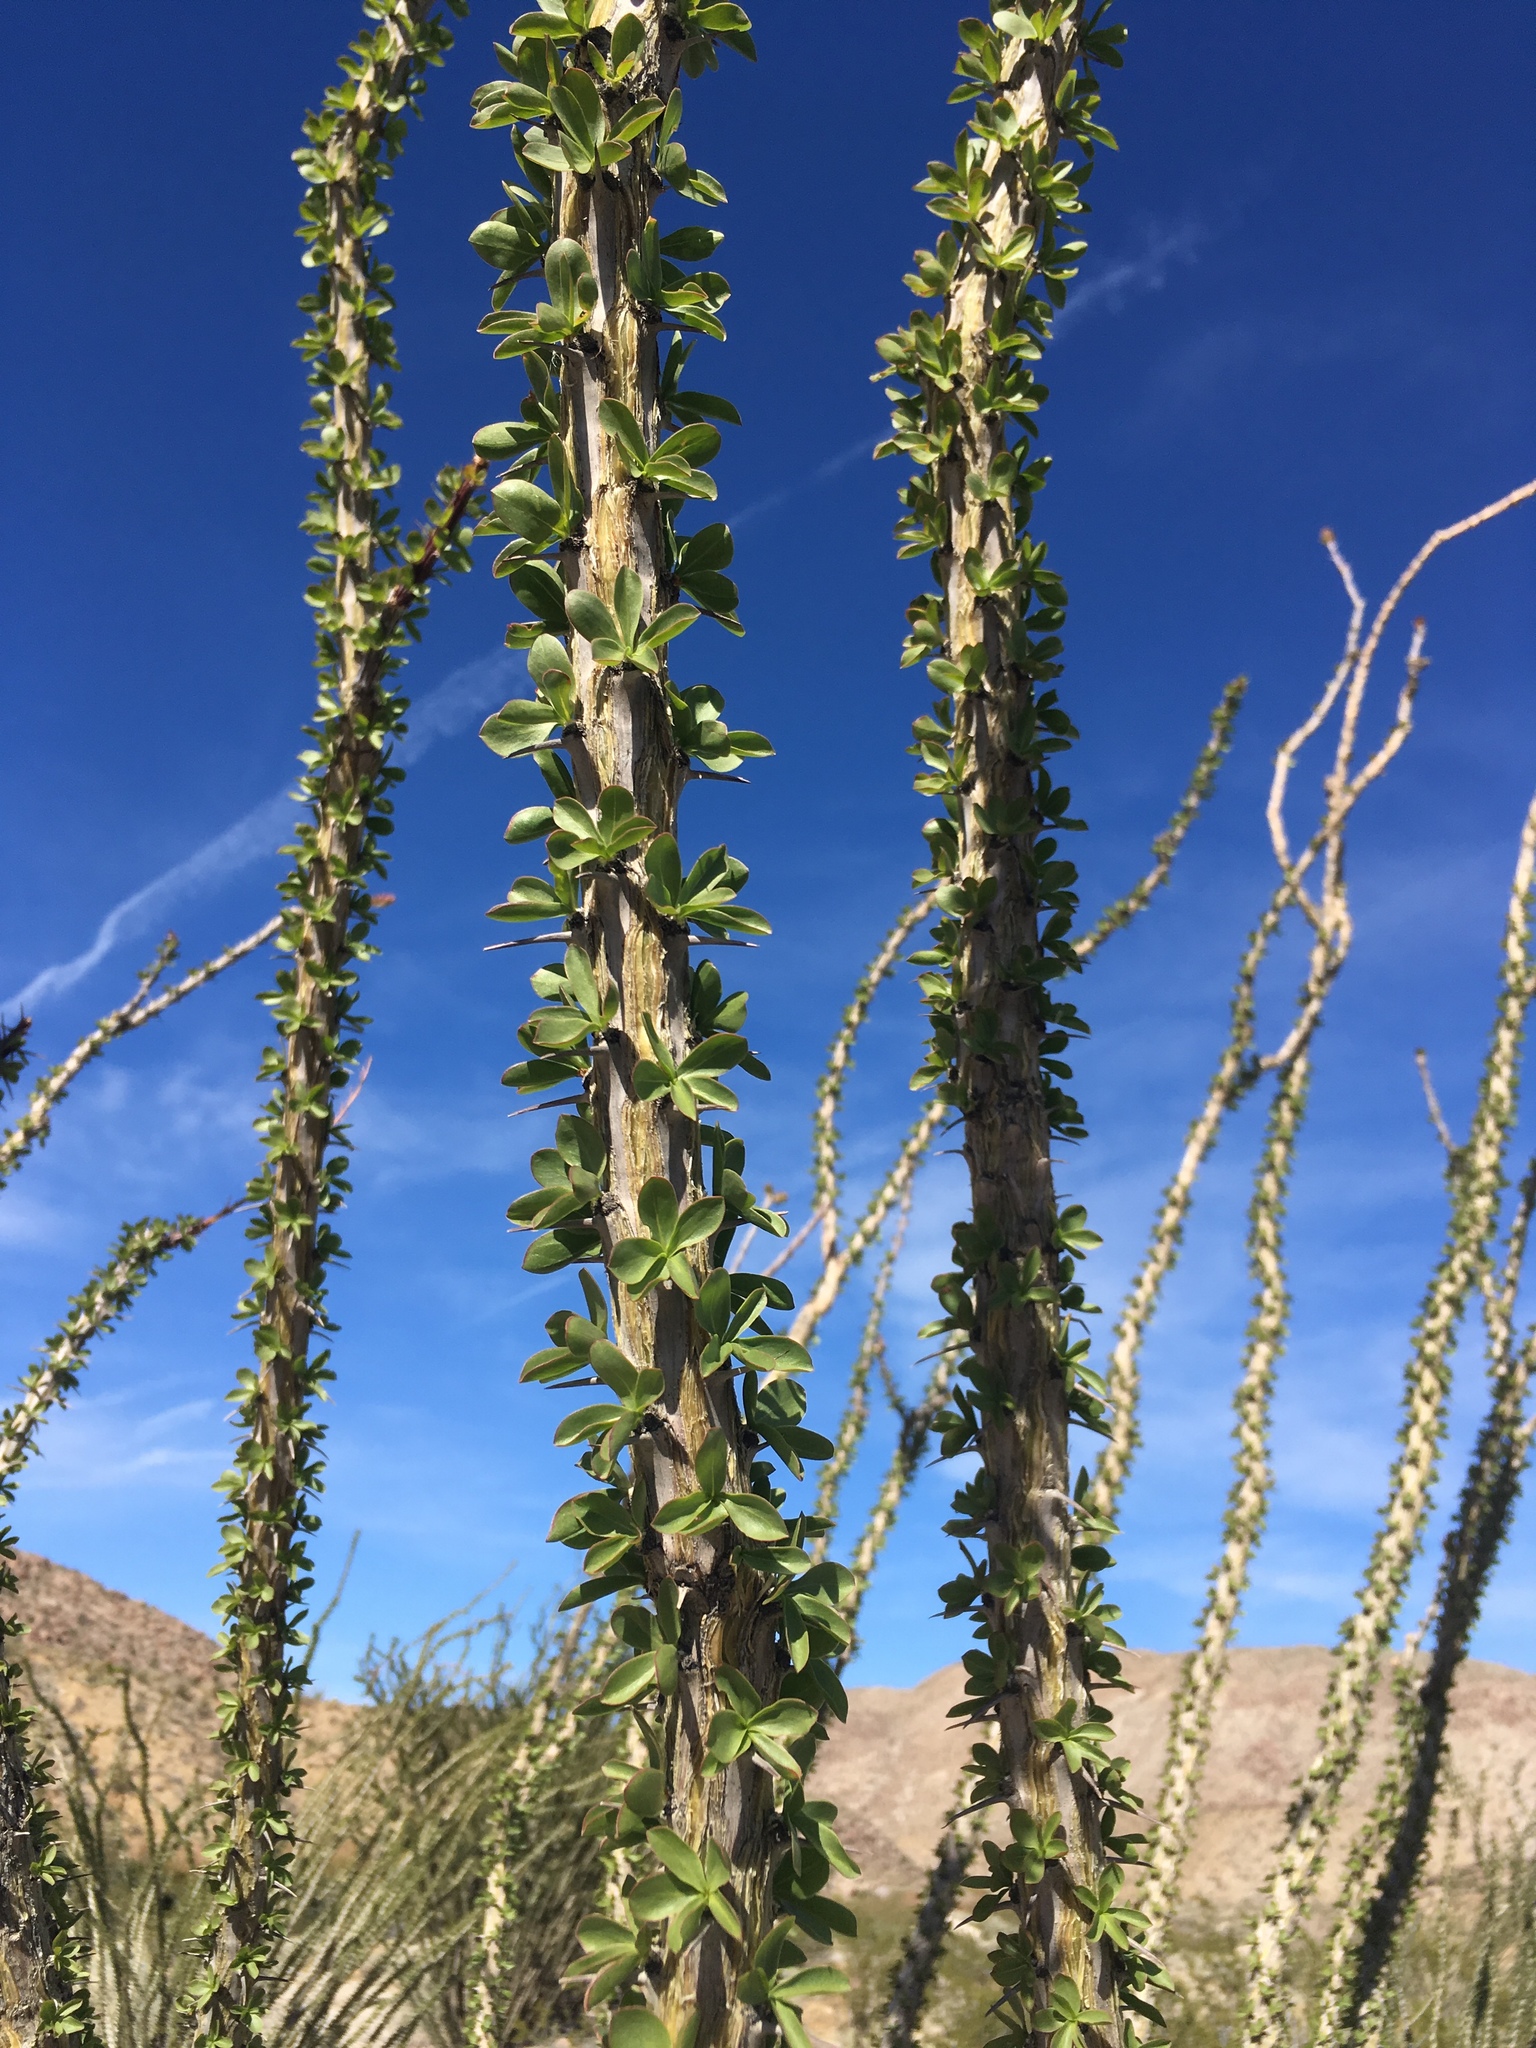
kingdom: Plantae
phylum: Tracheophyta
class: Magnoliopsida
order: Ericales
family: Fouquieriaceae
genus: Fouquieria
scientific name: Fouquieria splendens
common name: Vine-cactus
